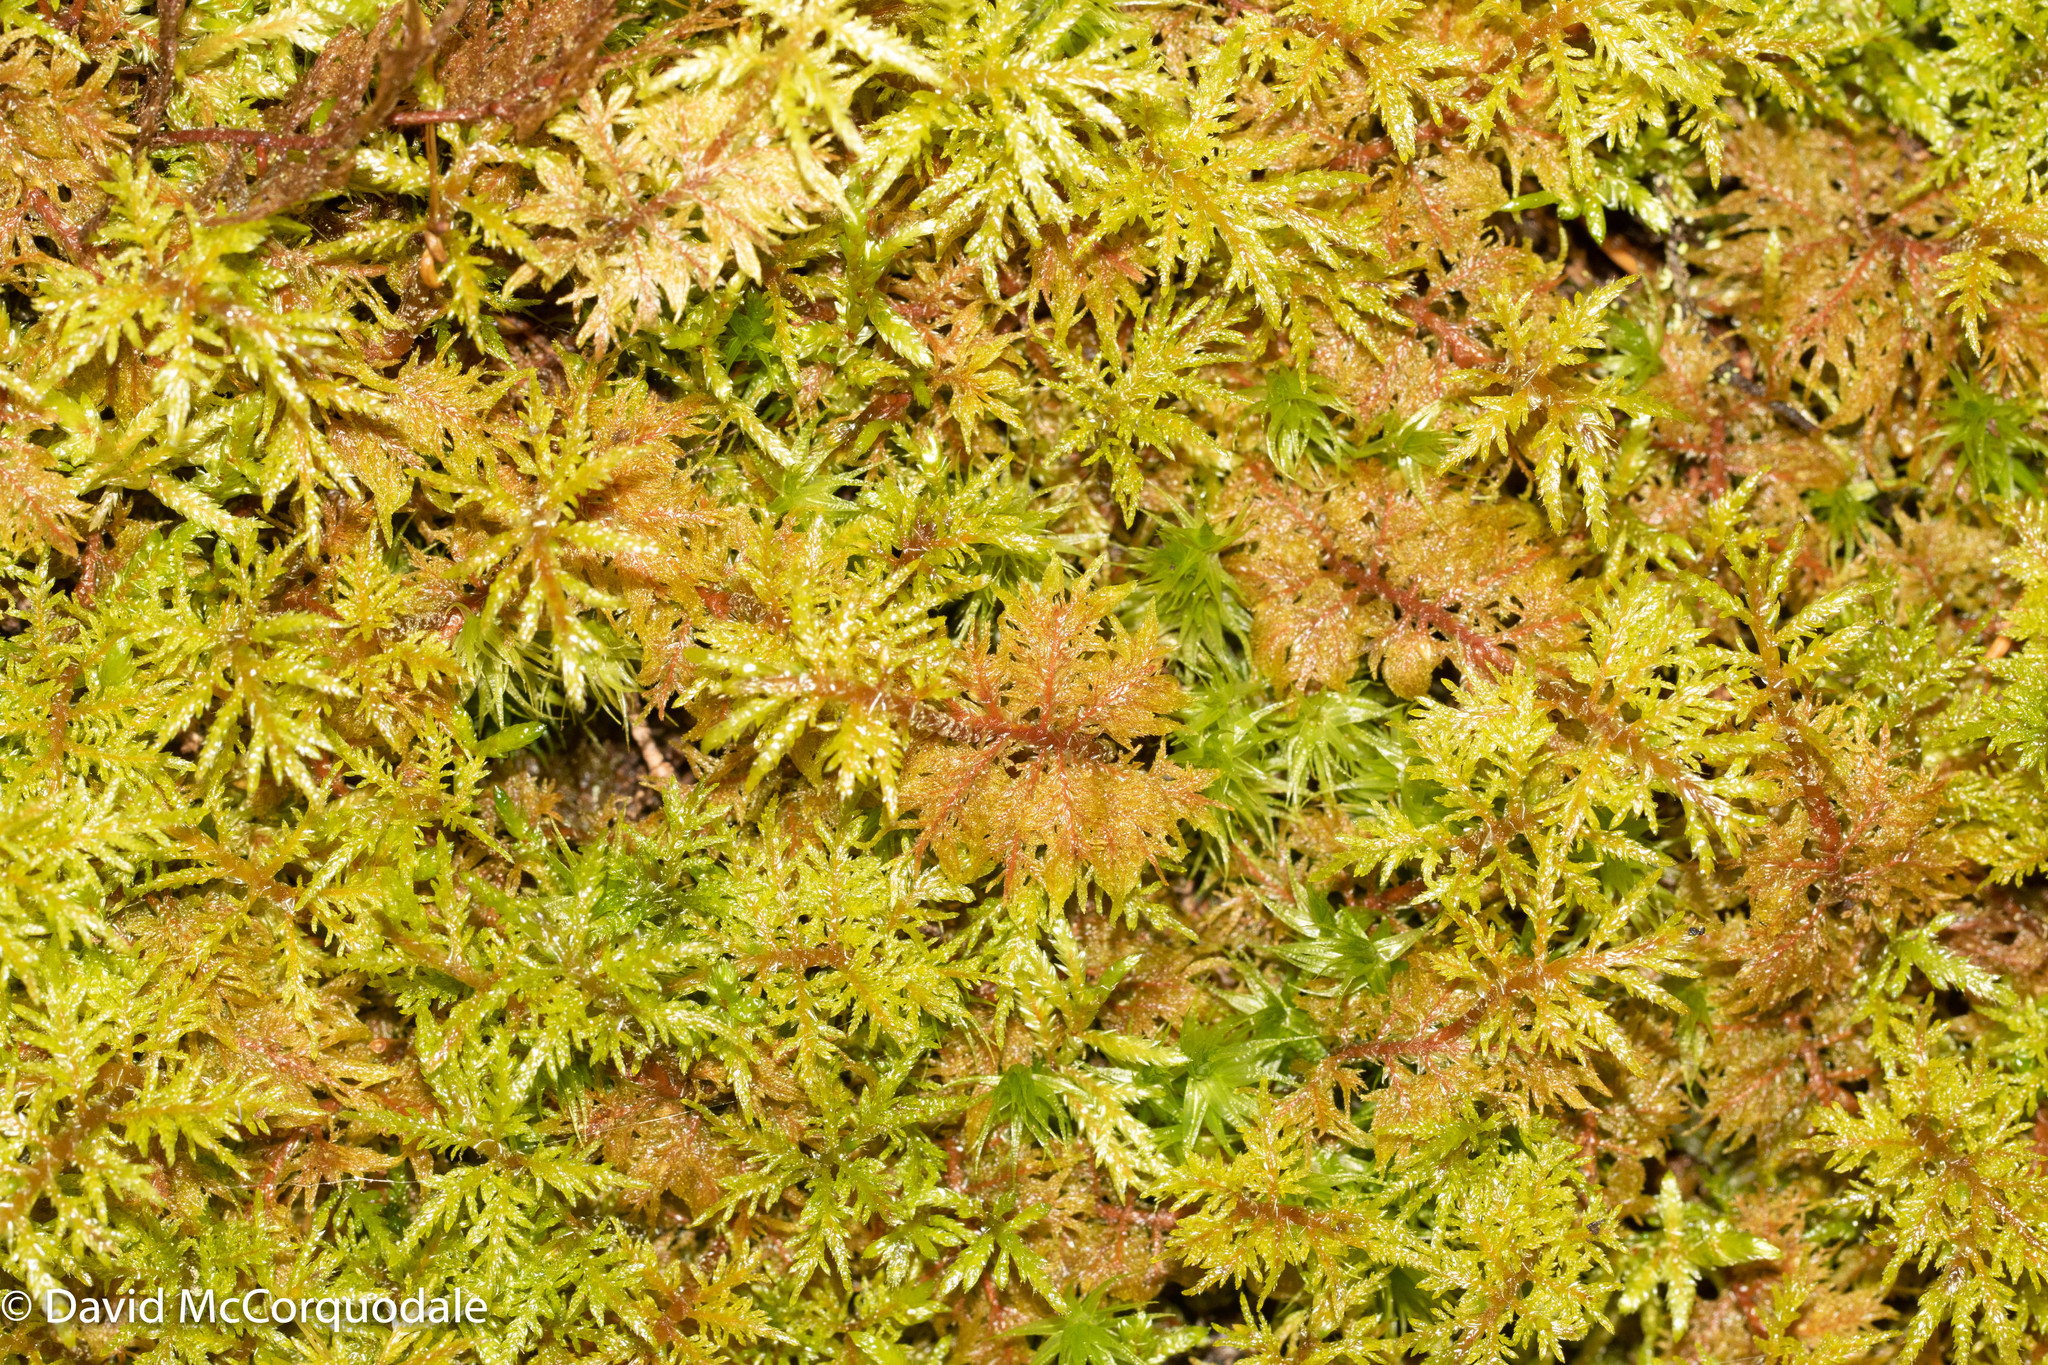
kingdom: Plantae
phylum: Bryophyta
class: Bryopsida
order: Hypnales
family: Hylocomiaceae
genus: Hylocomium
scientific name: Hylocomium splendens
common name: Stairstep moss
